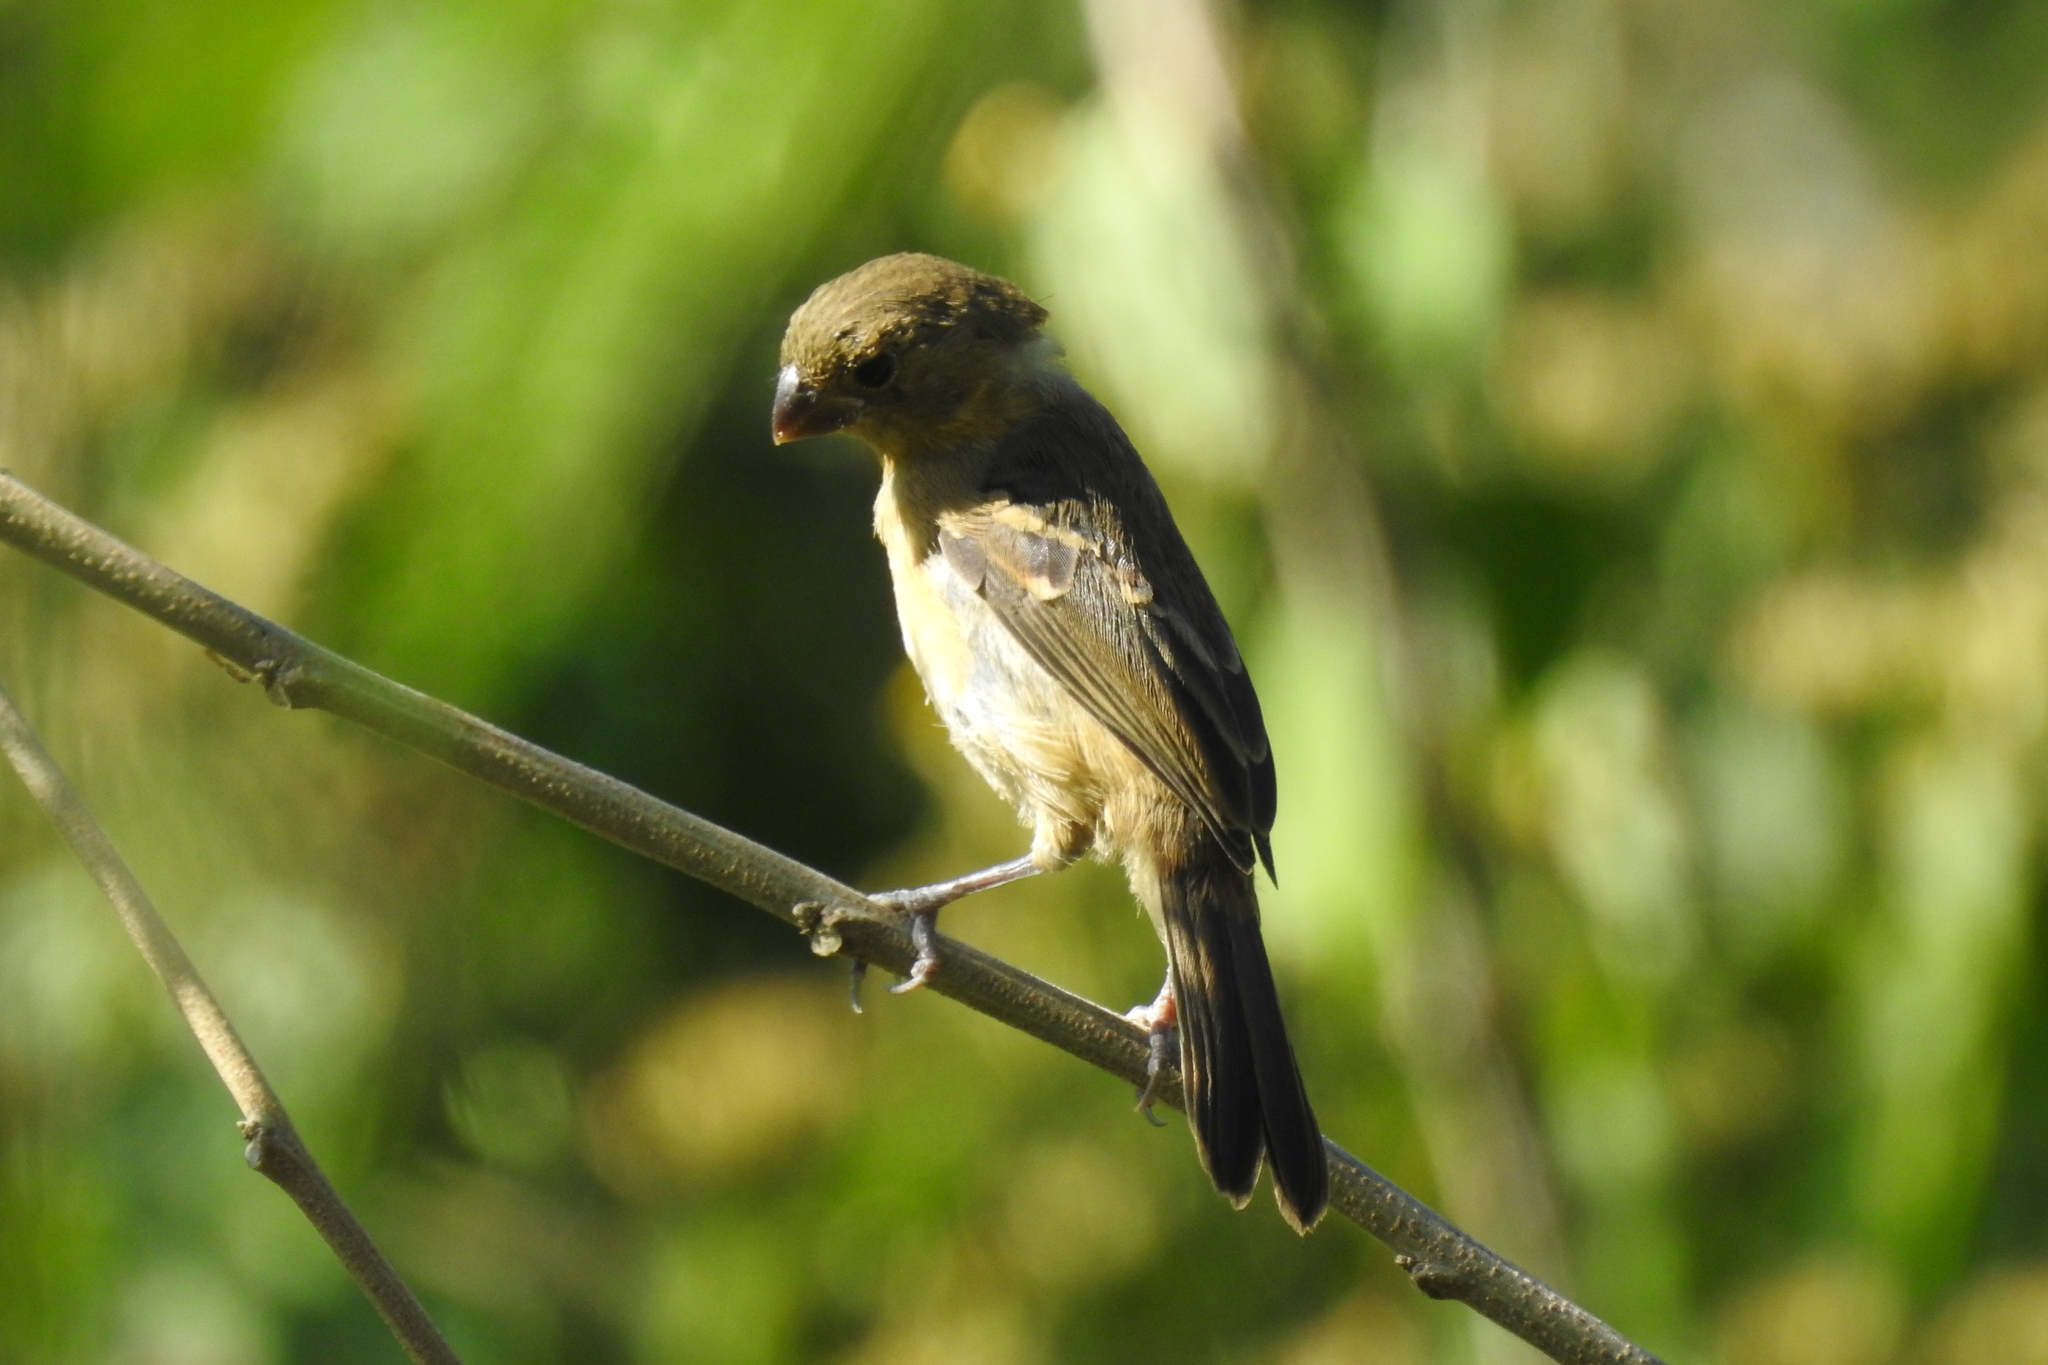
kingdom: Animalia
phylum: Chordata
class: Aves
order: Passeriformes
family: Thraupidae
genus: Sporophila
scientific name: Sporophila morelleti
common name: Morelet's seedeater
